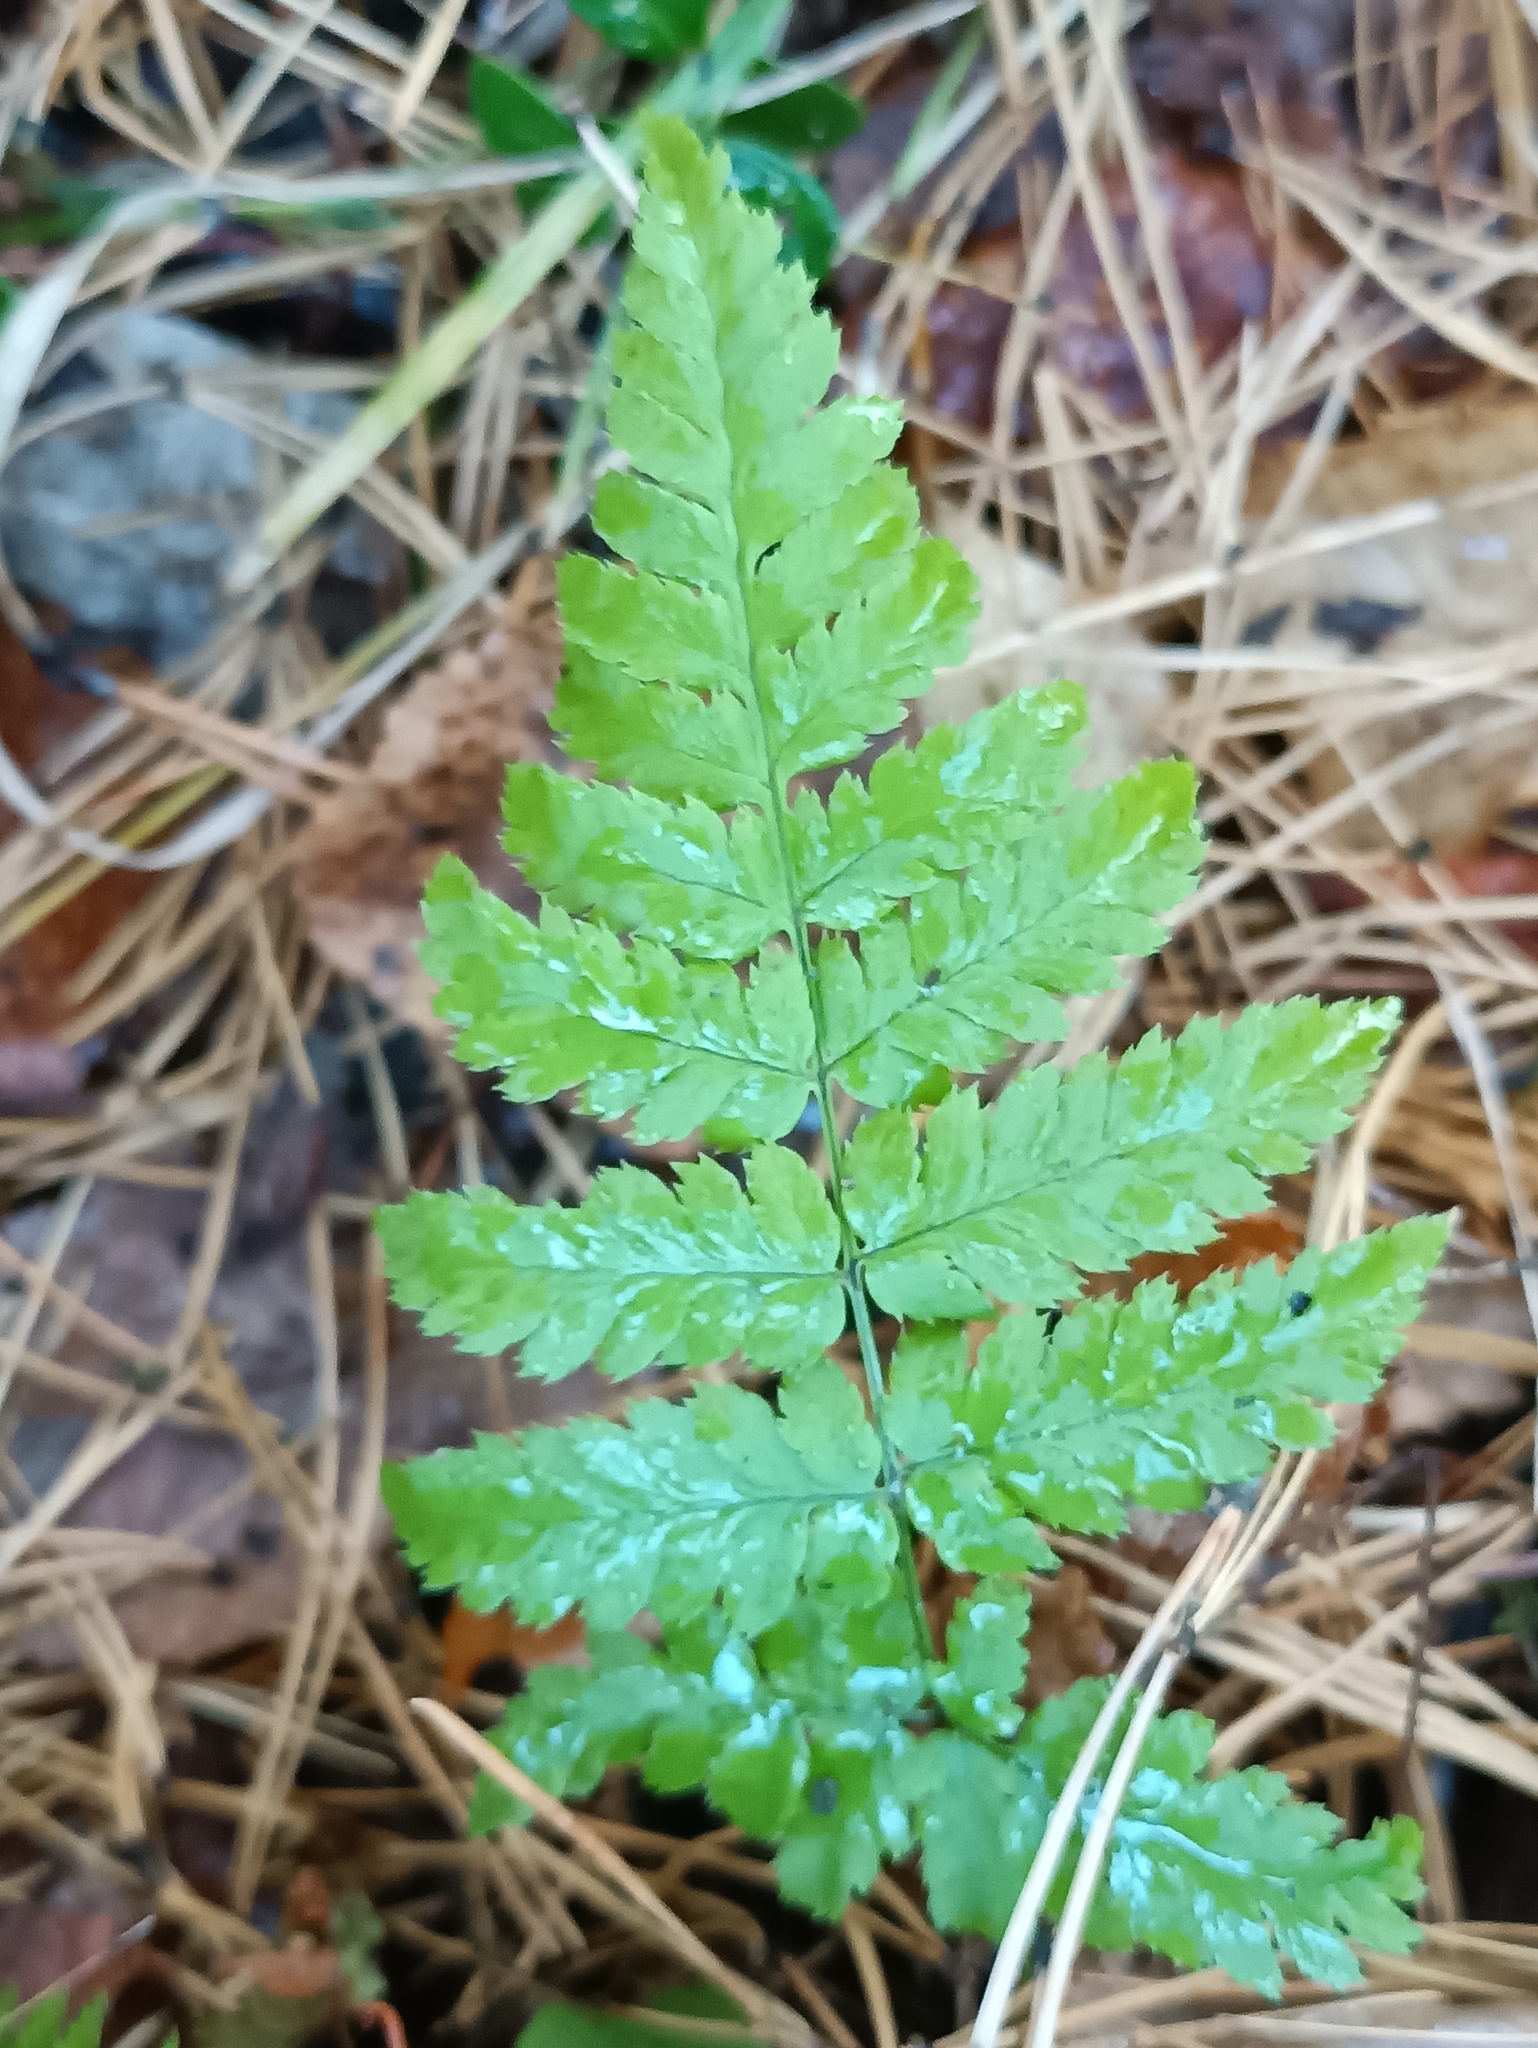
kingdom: Plantae
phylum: Tracheophyta
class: Polypodiopsida
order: Polypodiales
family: Dryopteridaceae
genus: Dryopteris
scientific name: Dryopteris carthusiana
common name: Narrow buckler-fern
